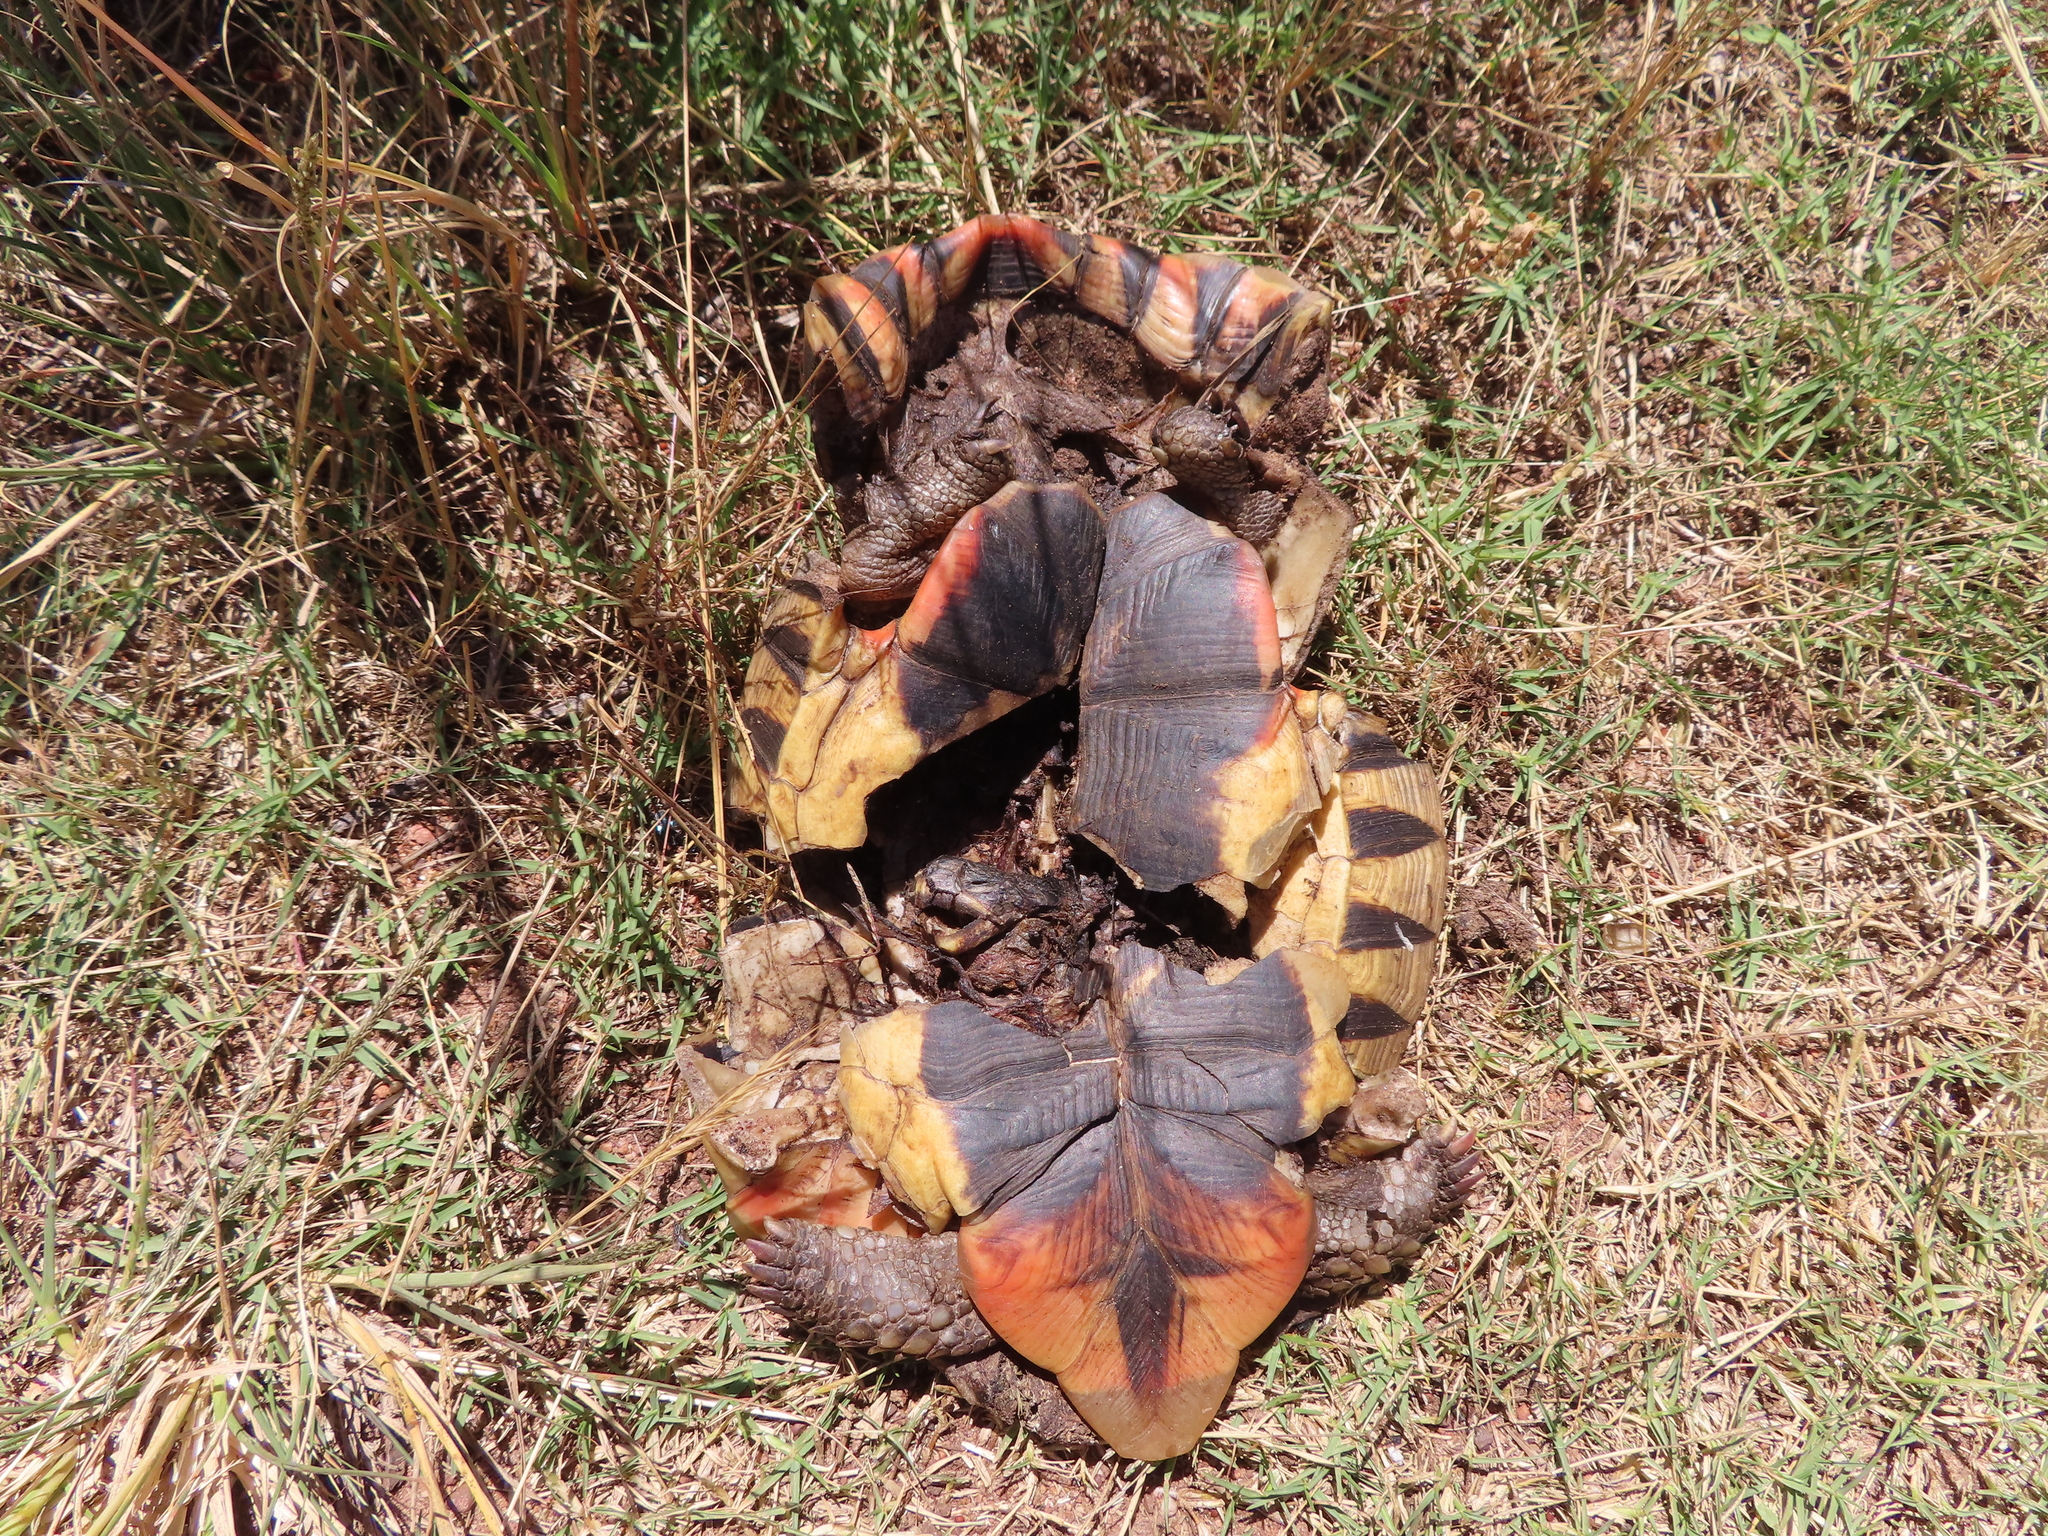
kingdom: Animalia
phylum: Chordata
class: Testudines
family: Testudinidae
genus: Chersina
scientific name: Chersina angulata
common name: South african bowsprit tortoise
